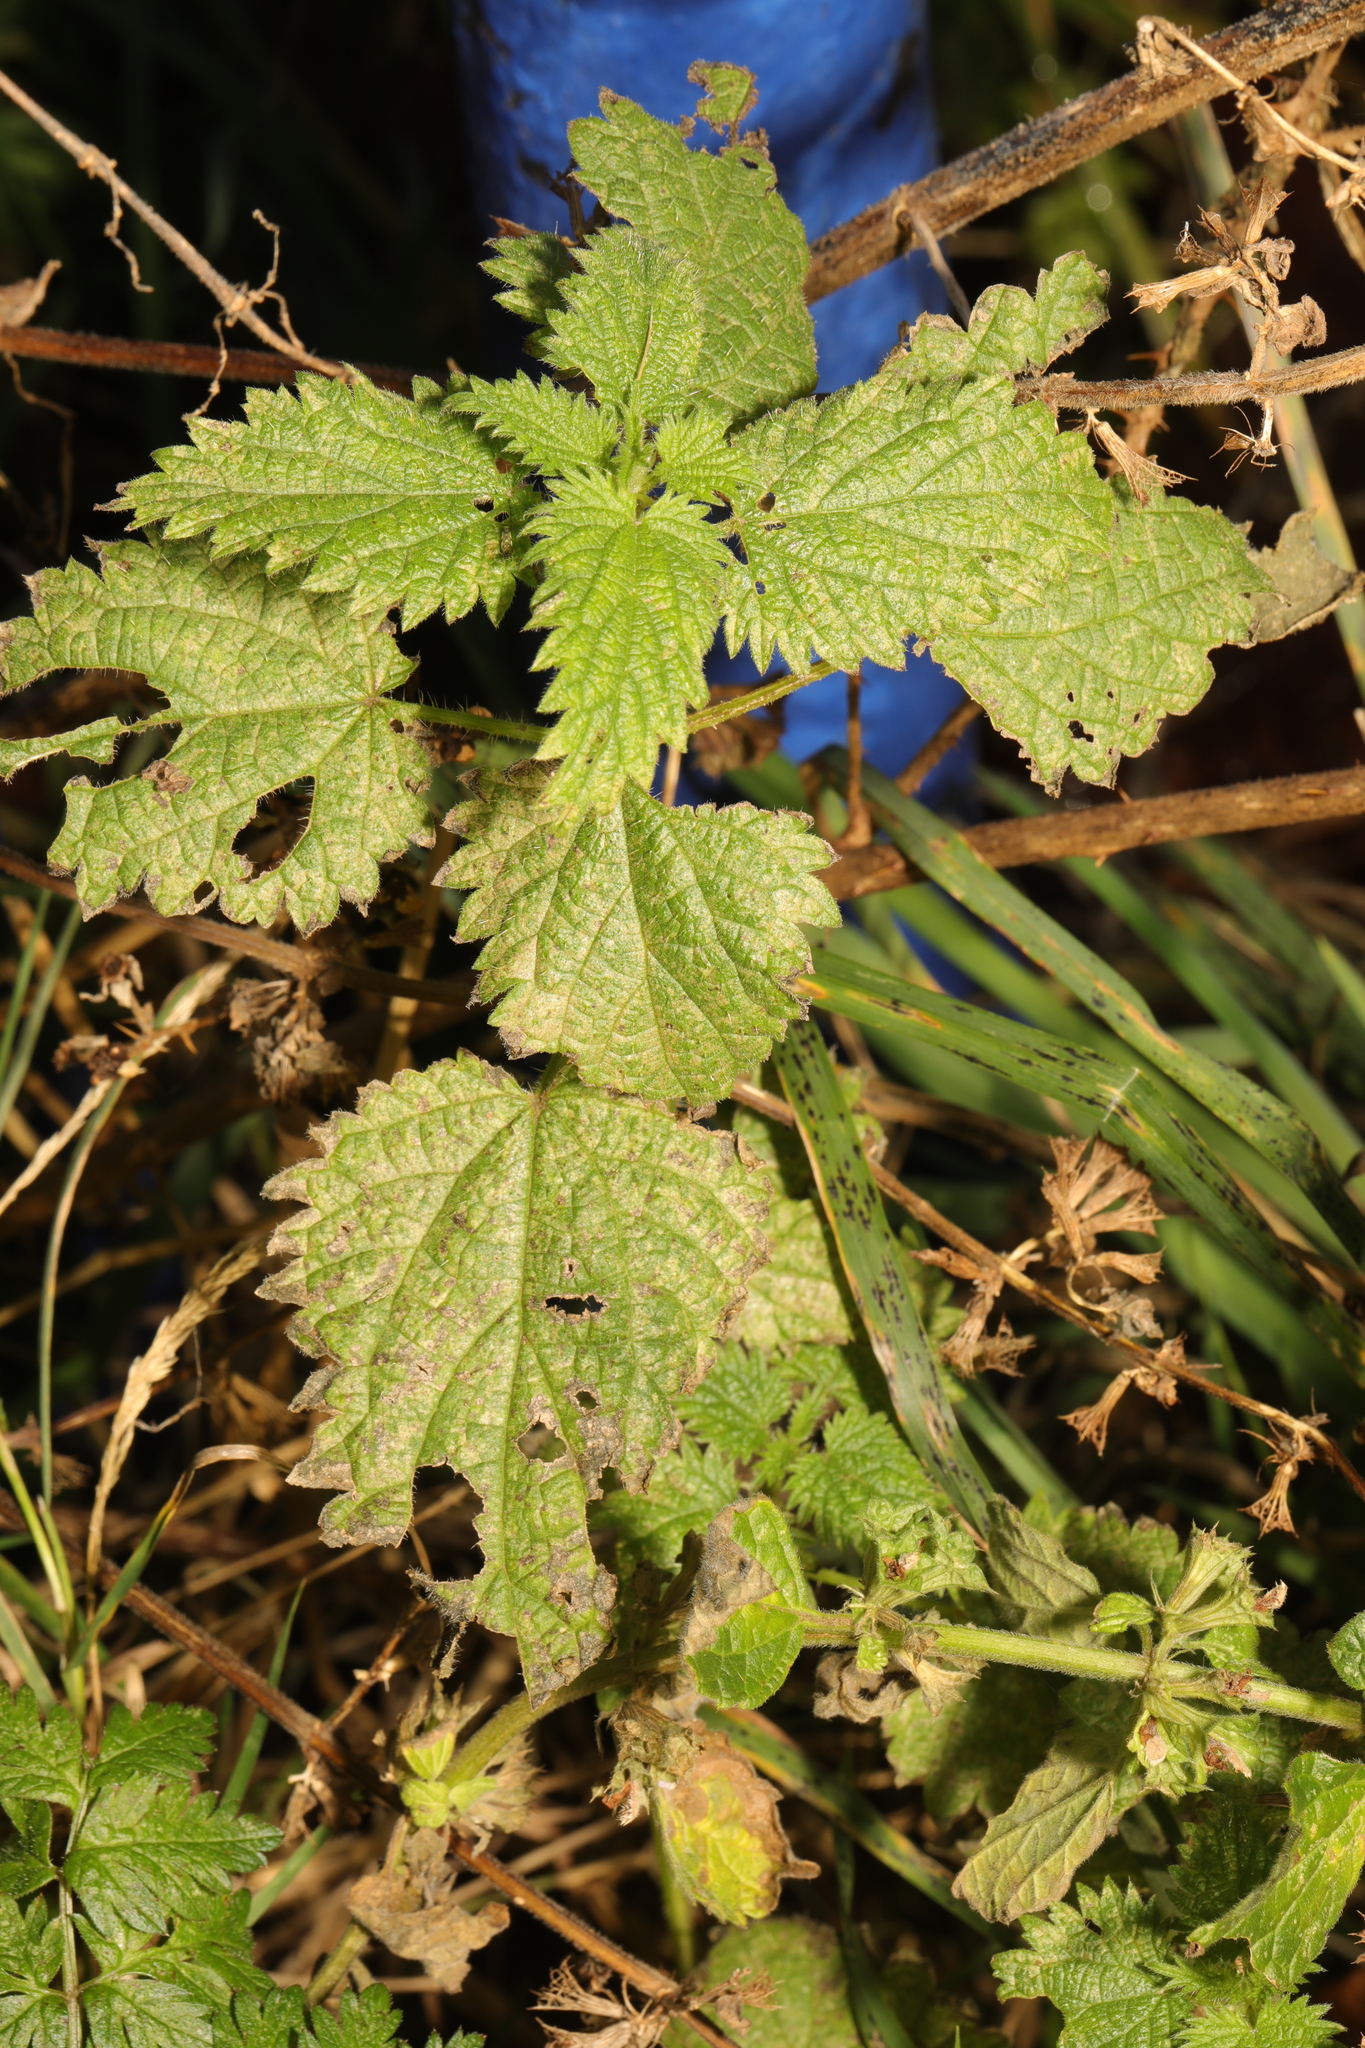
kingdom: Plantae
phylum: Tracheophyta
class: Magnoliopsida
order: Rosales
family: Urticaceae
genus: Urtica
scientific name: Urtica dioica
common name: Common nettle
